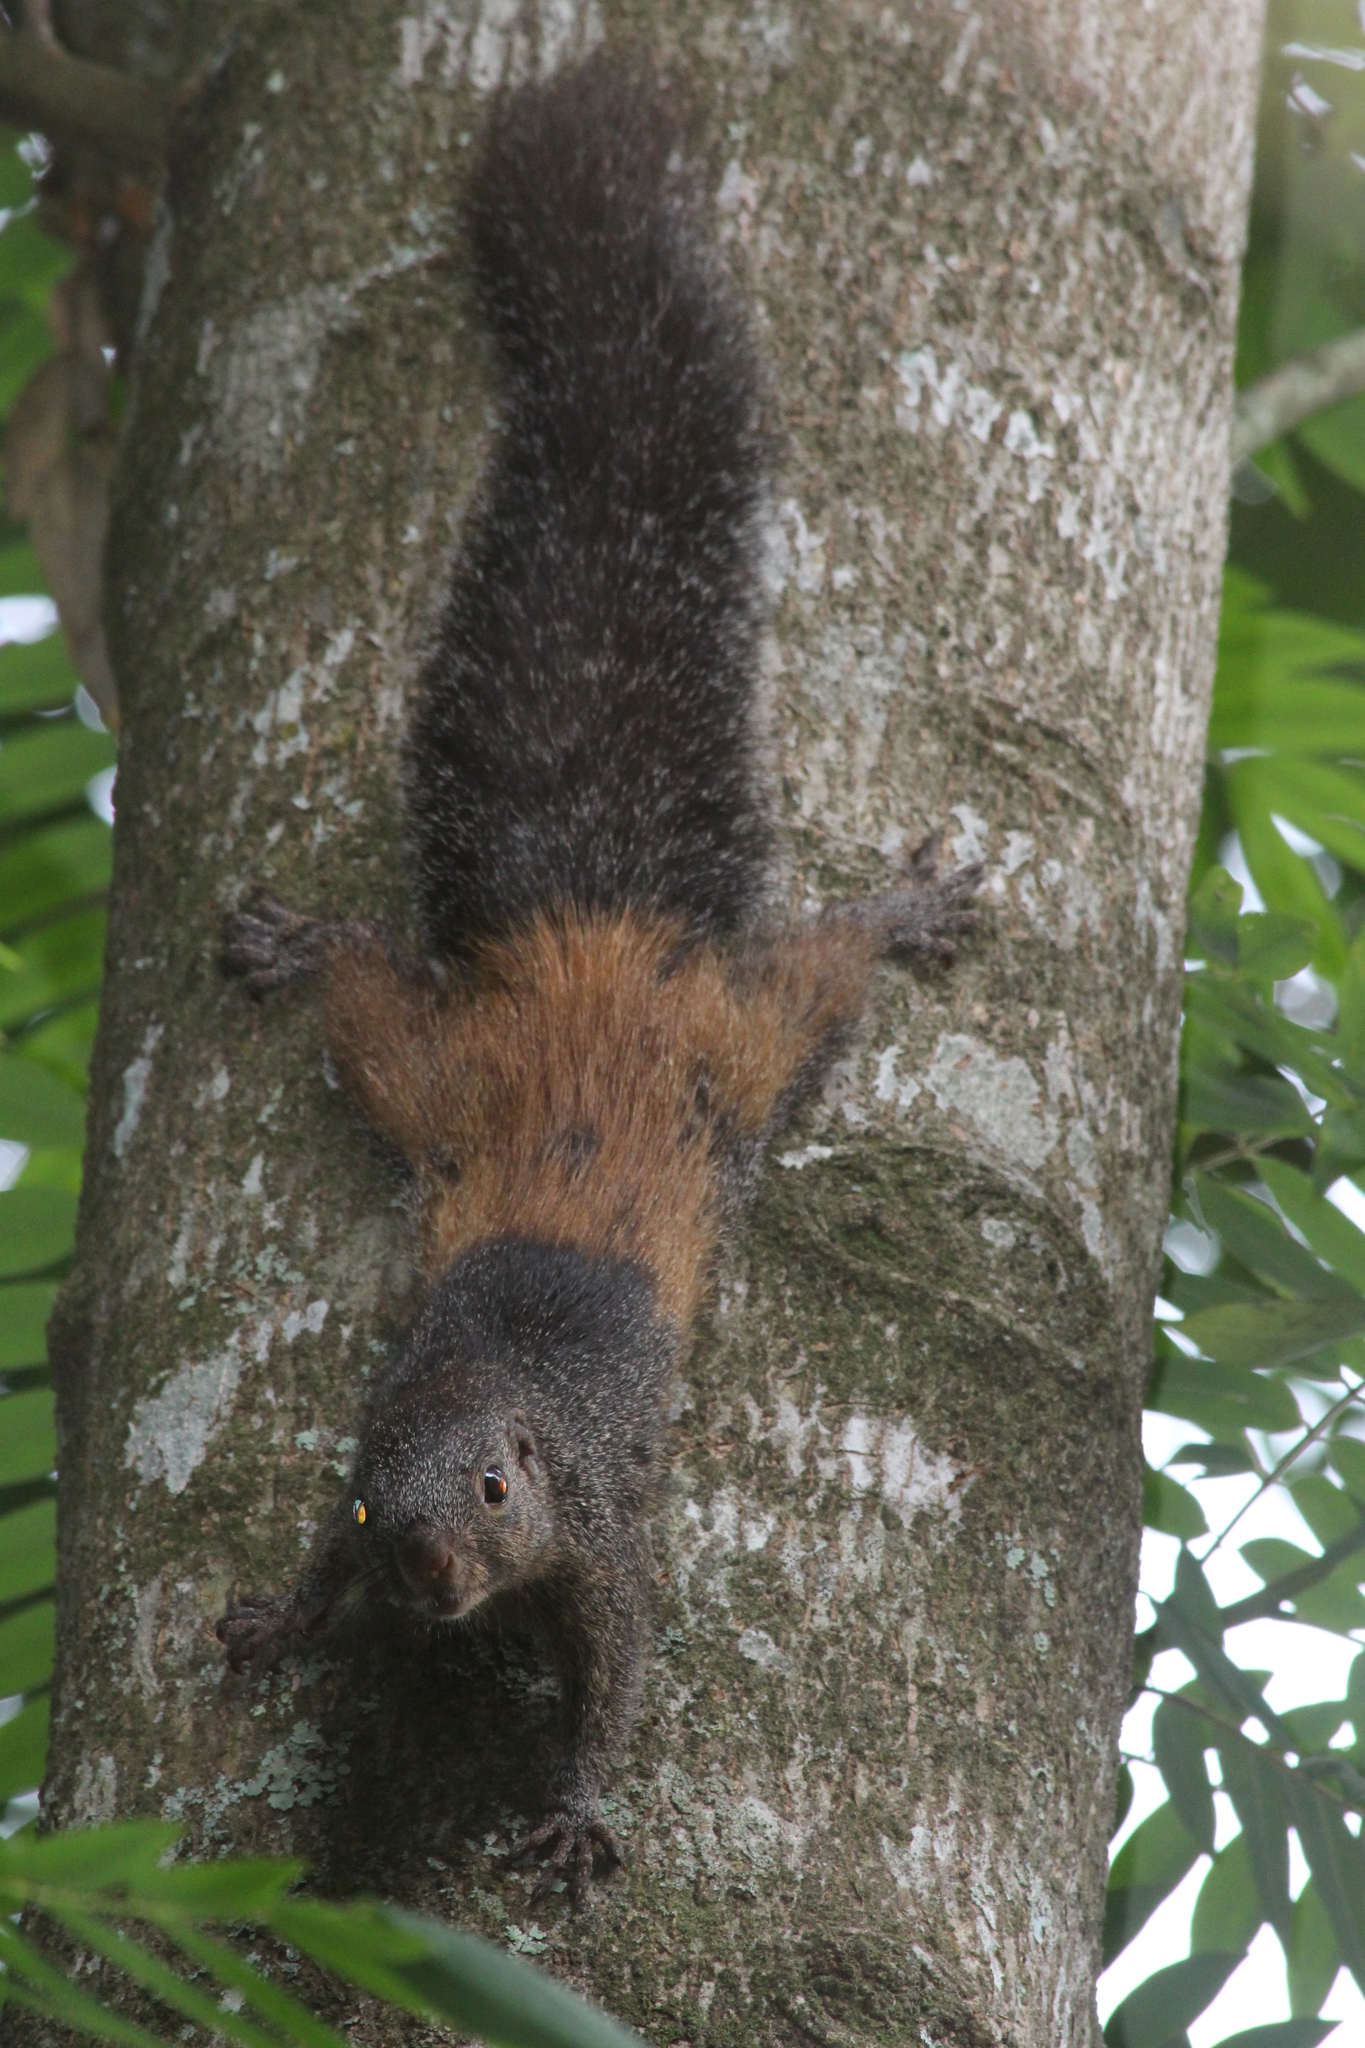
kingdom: Animalia
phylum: Chordata
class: Mammalia
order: Rodentia
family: Sciuridae
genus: Heliosciurus
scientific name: Heliosciurus mutabilis
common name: Mutable sun squirrel
